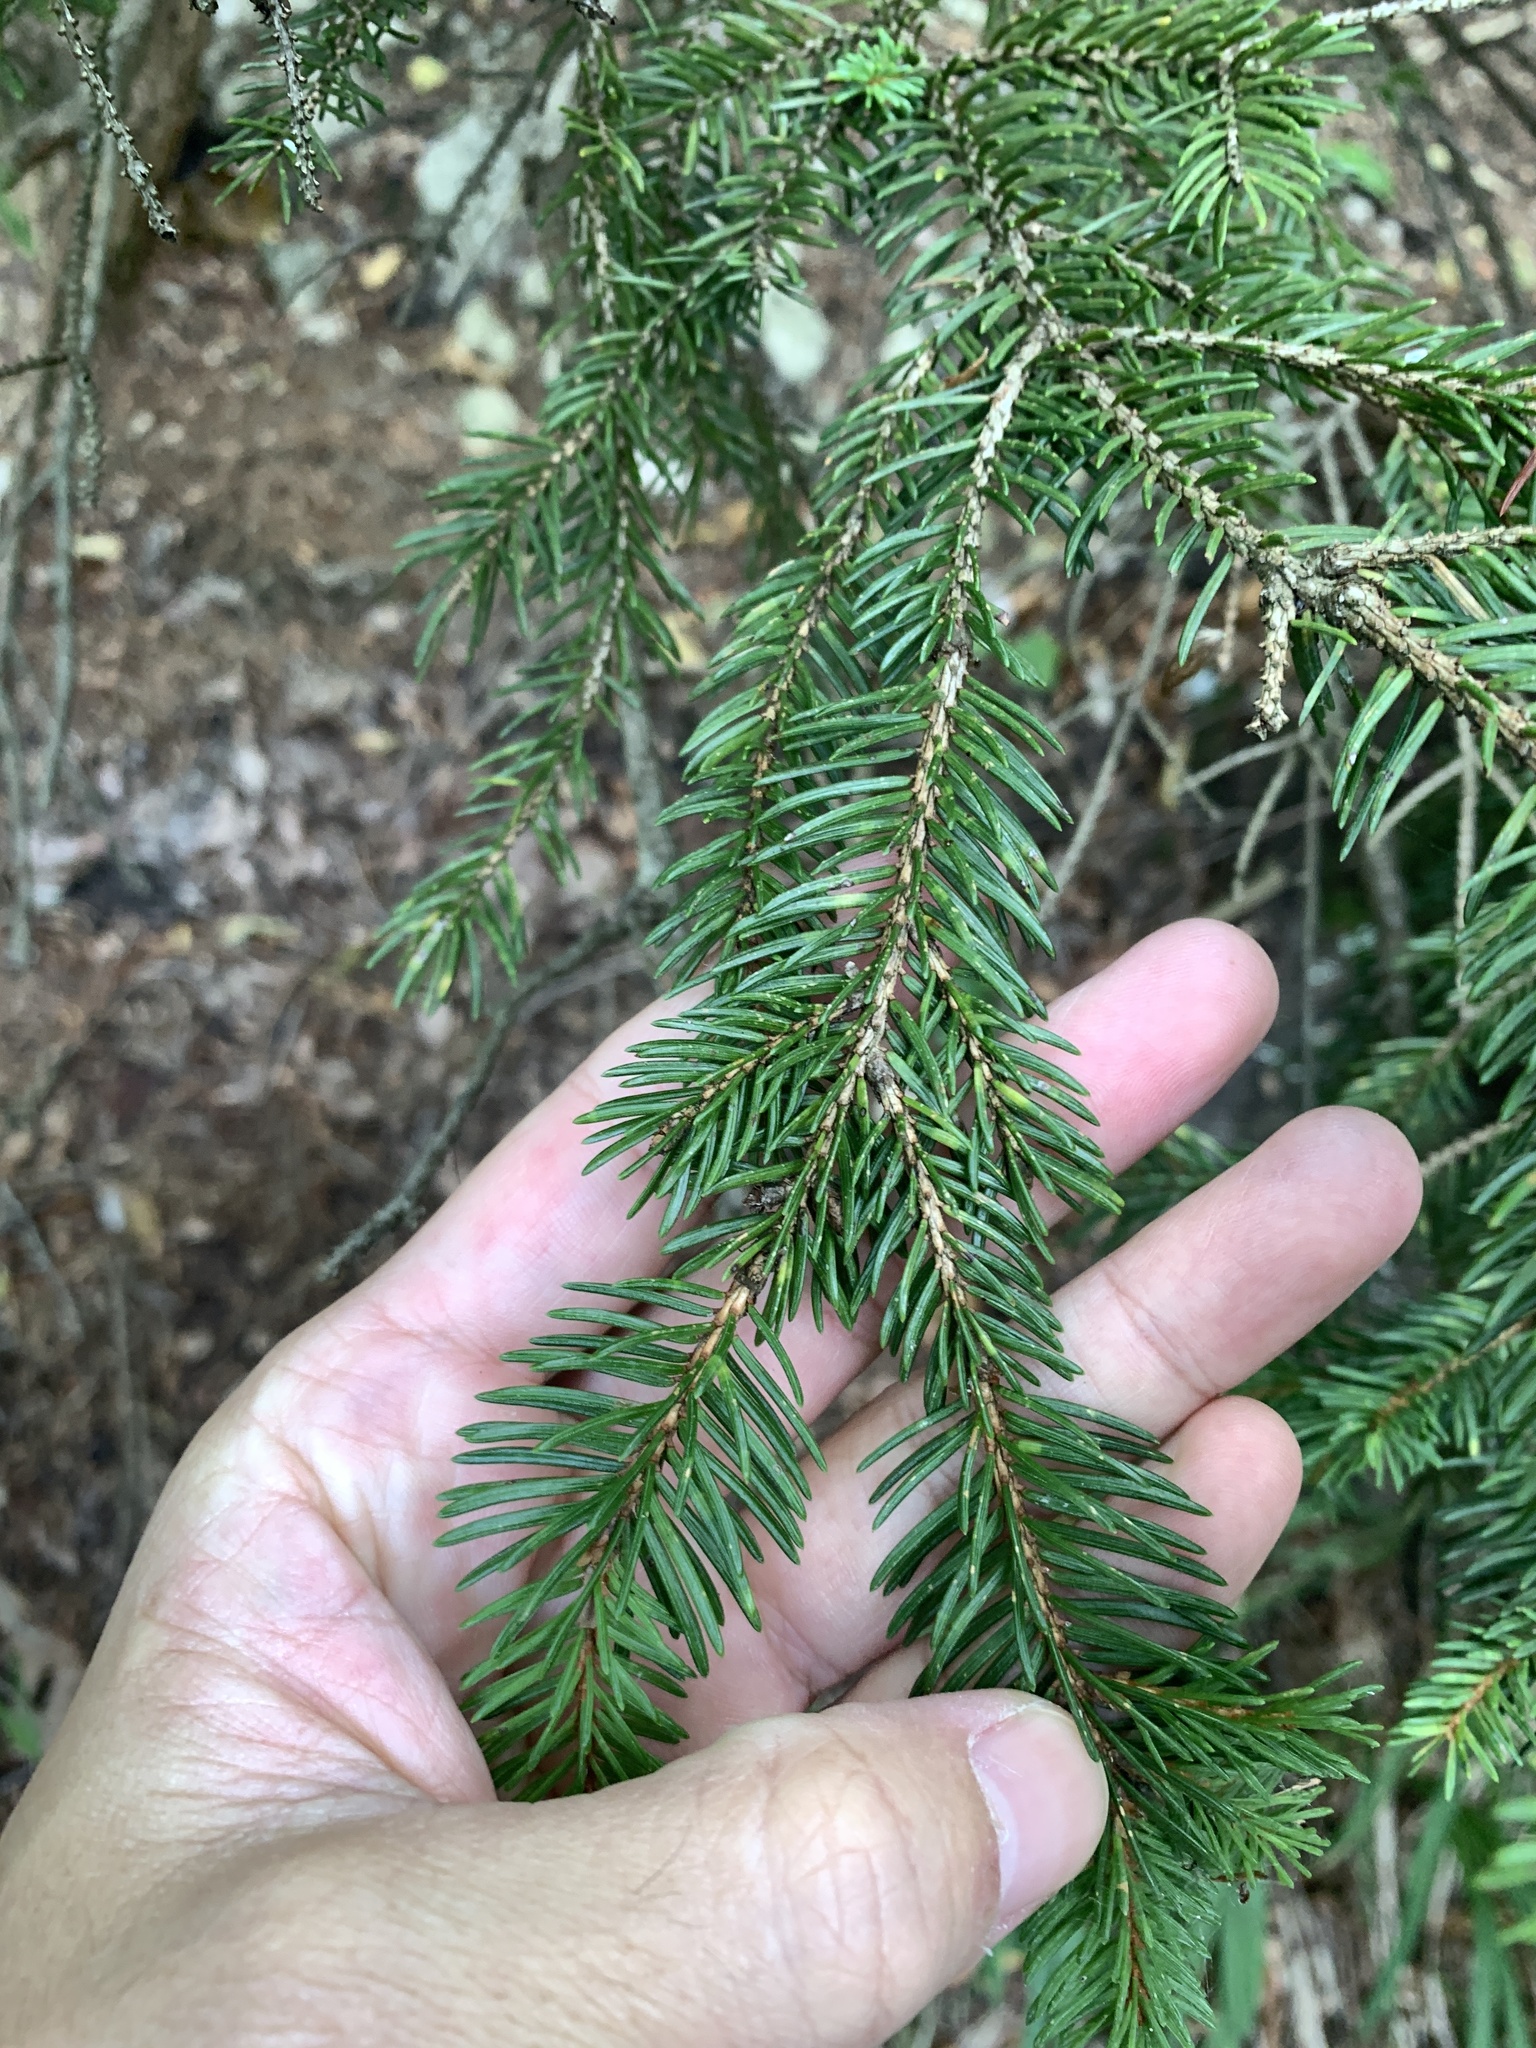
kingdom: Plantae
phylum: Tracheophyta
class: Pinopsida
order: Pinales
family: Pinaceae
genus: Picea
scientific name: Picea abies
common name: Norway spruce
